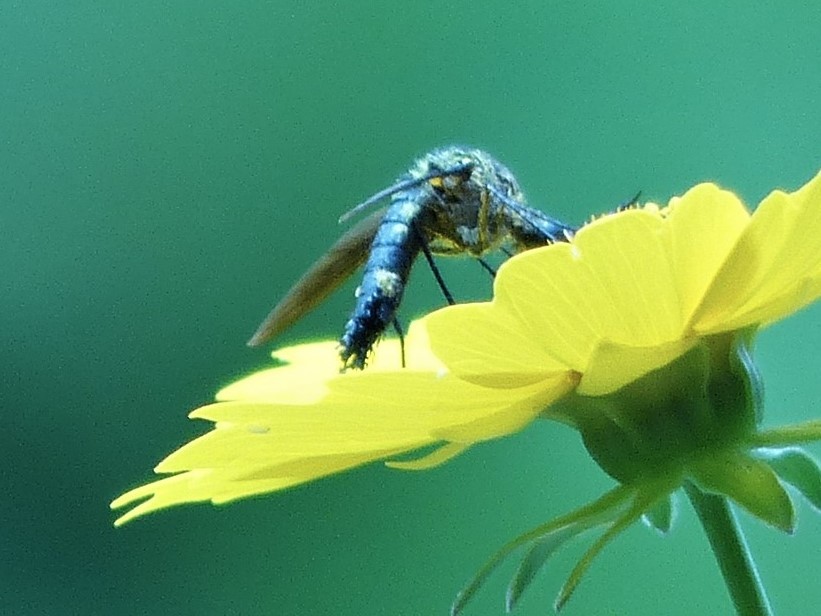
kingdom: Animalia
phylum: Arthropoda
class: Insecta
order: Diptera
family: Bombyliidae
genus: Lepidophora
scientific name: Lepidophora lepidocera
